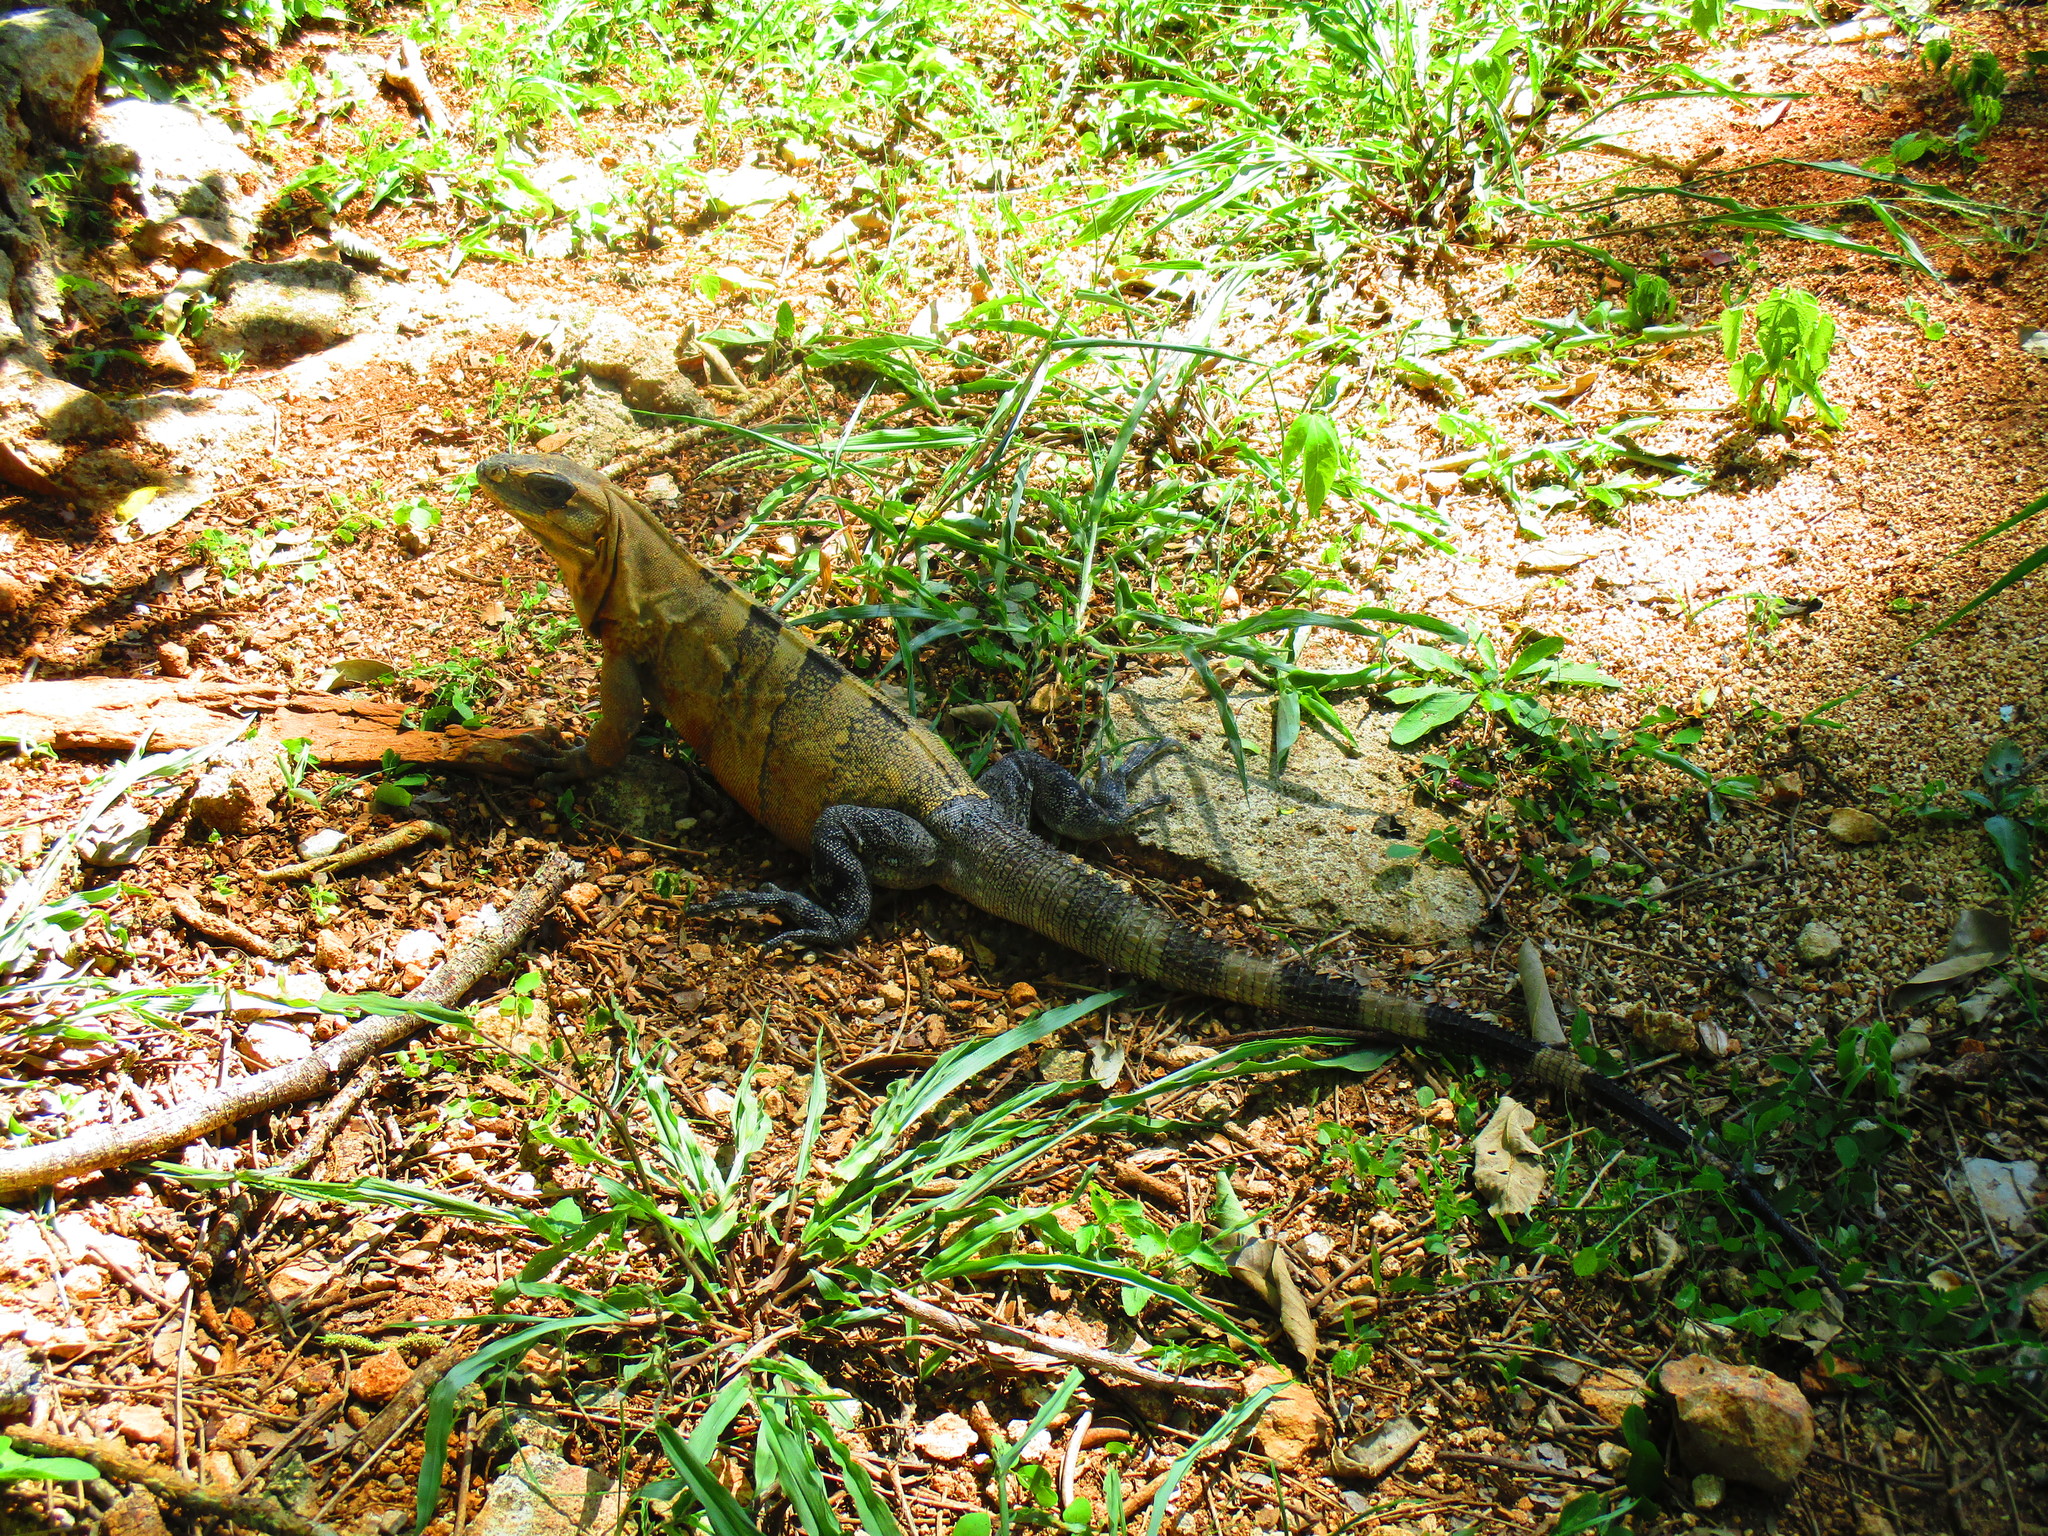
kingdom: Animalia
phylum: Chordata
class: Squamata
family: Iguanidae
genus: Ctenosaura
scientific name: Ctenosaura similis
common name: Black spiny-tailed iguana
